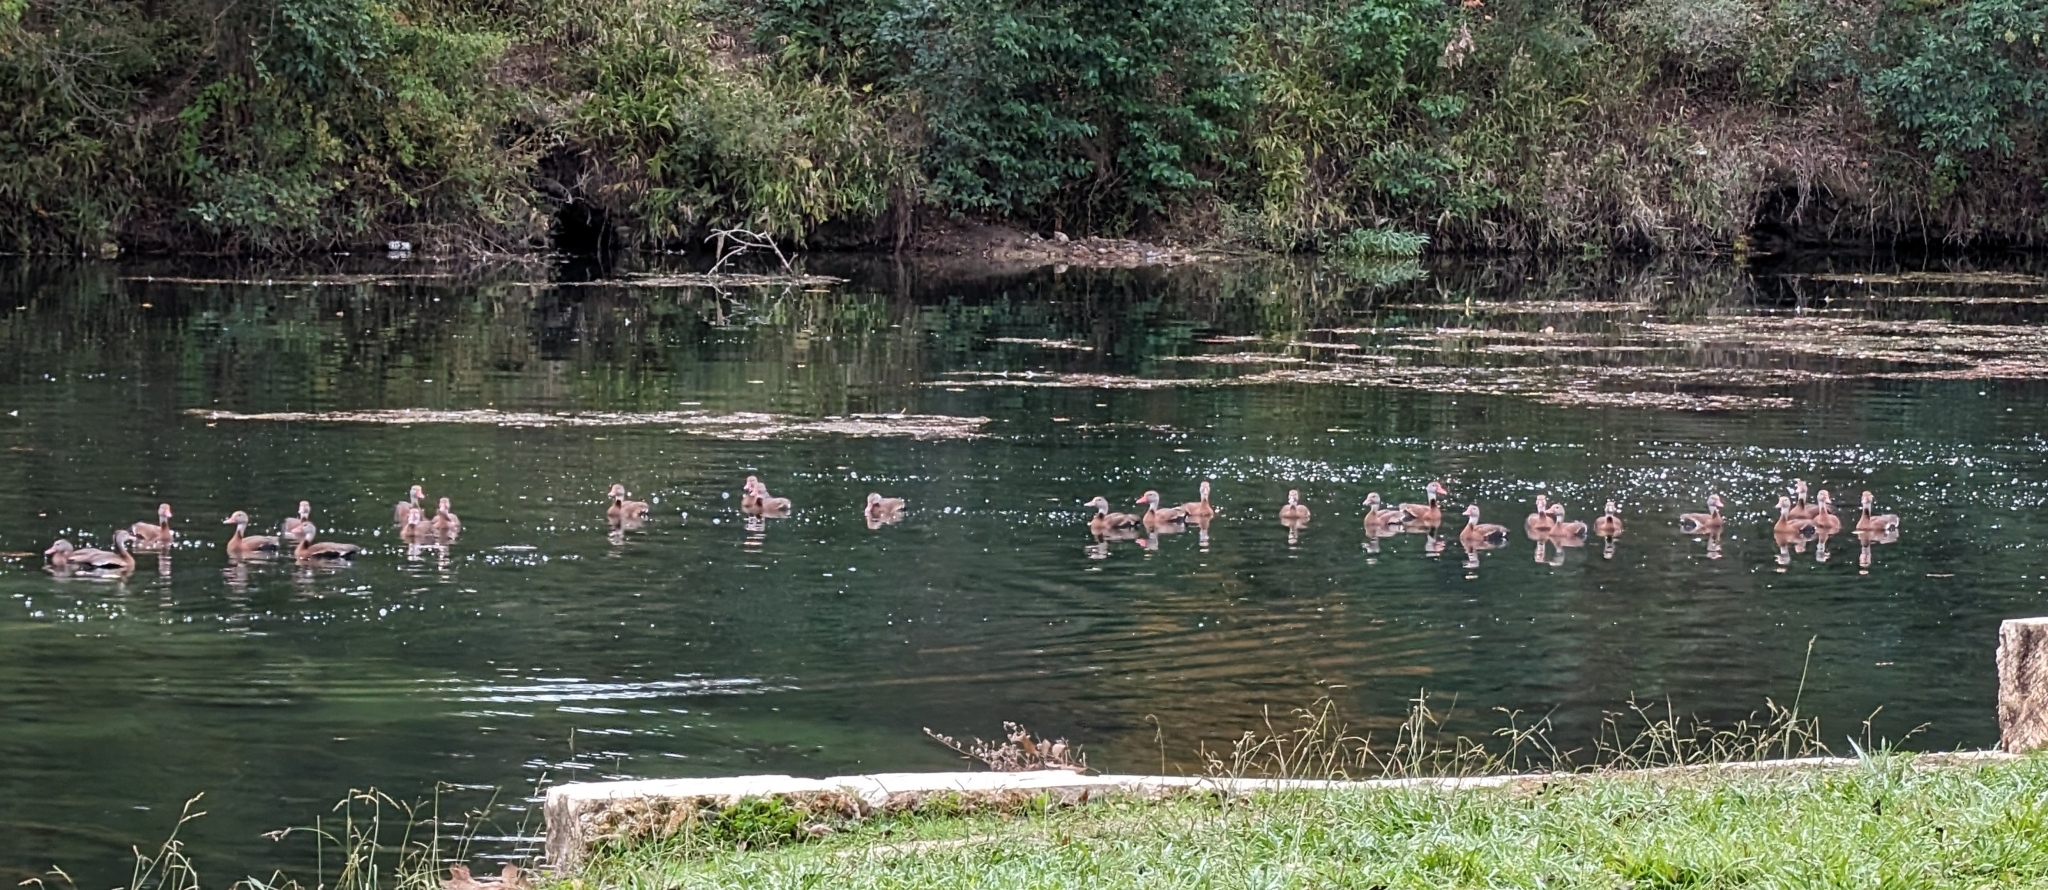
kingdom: Animalia
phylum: Chordata
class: Aves
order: Anseriformes
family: Anatidae
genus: Dendrocygna
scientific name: Dendrocygna autumnalis
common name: Black-bellied whistling duck
